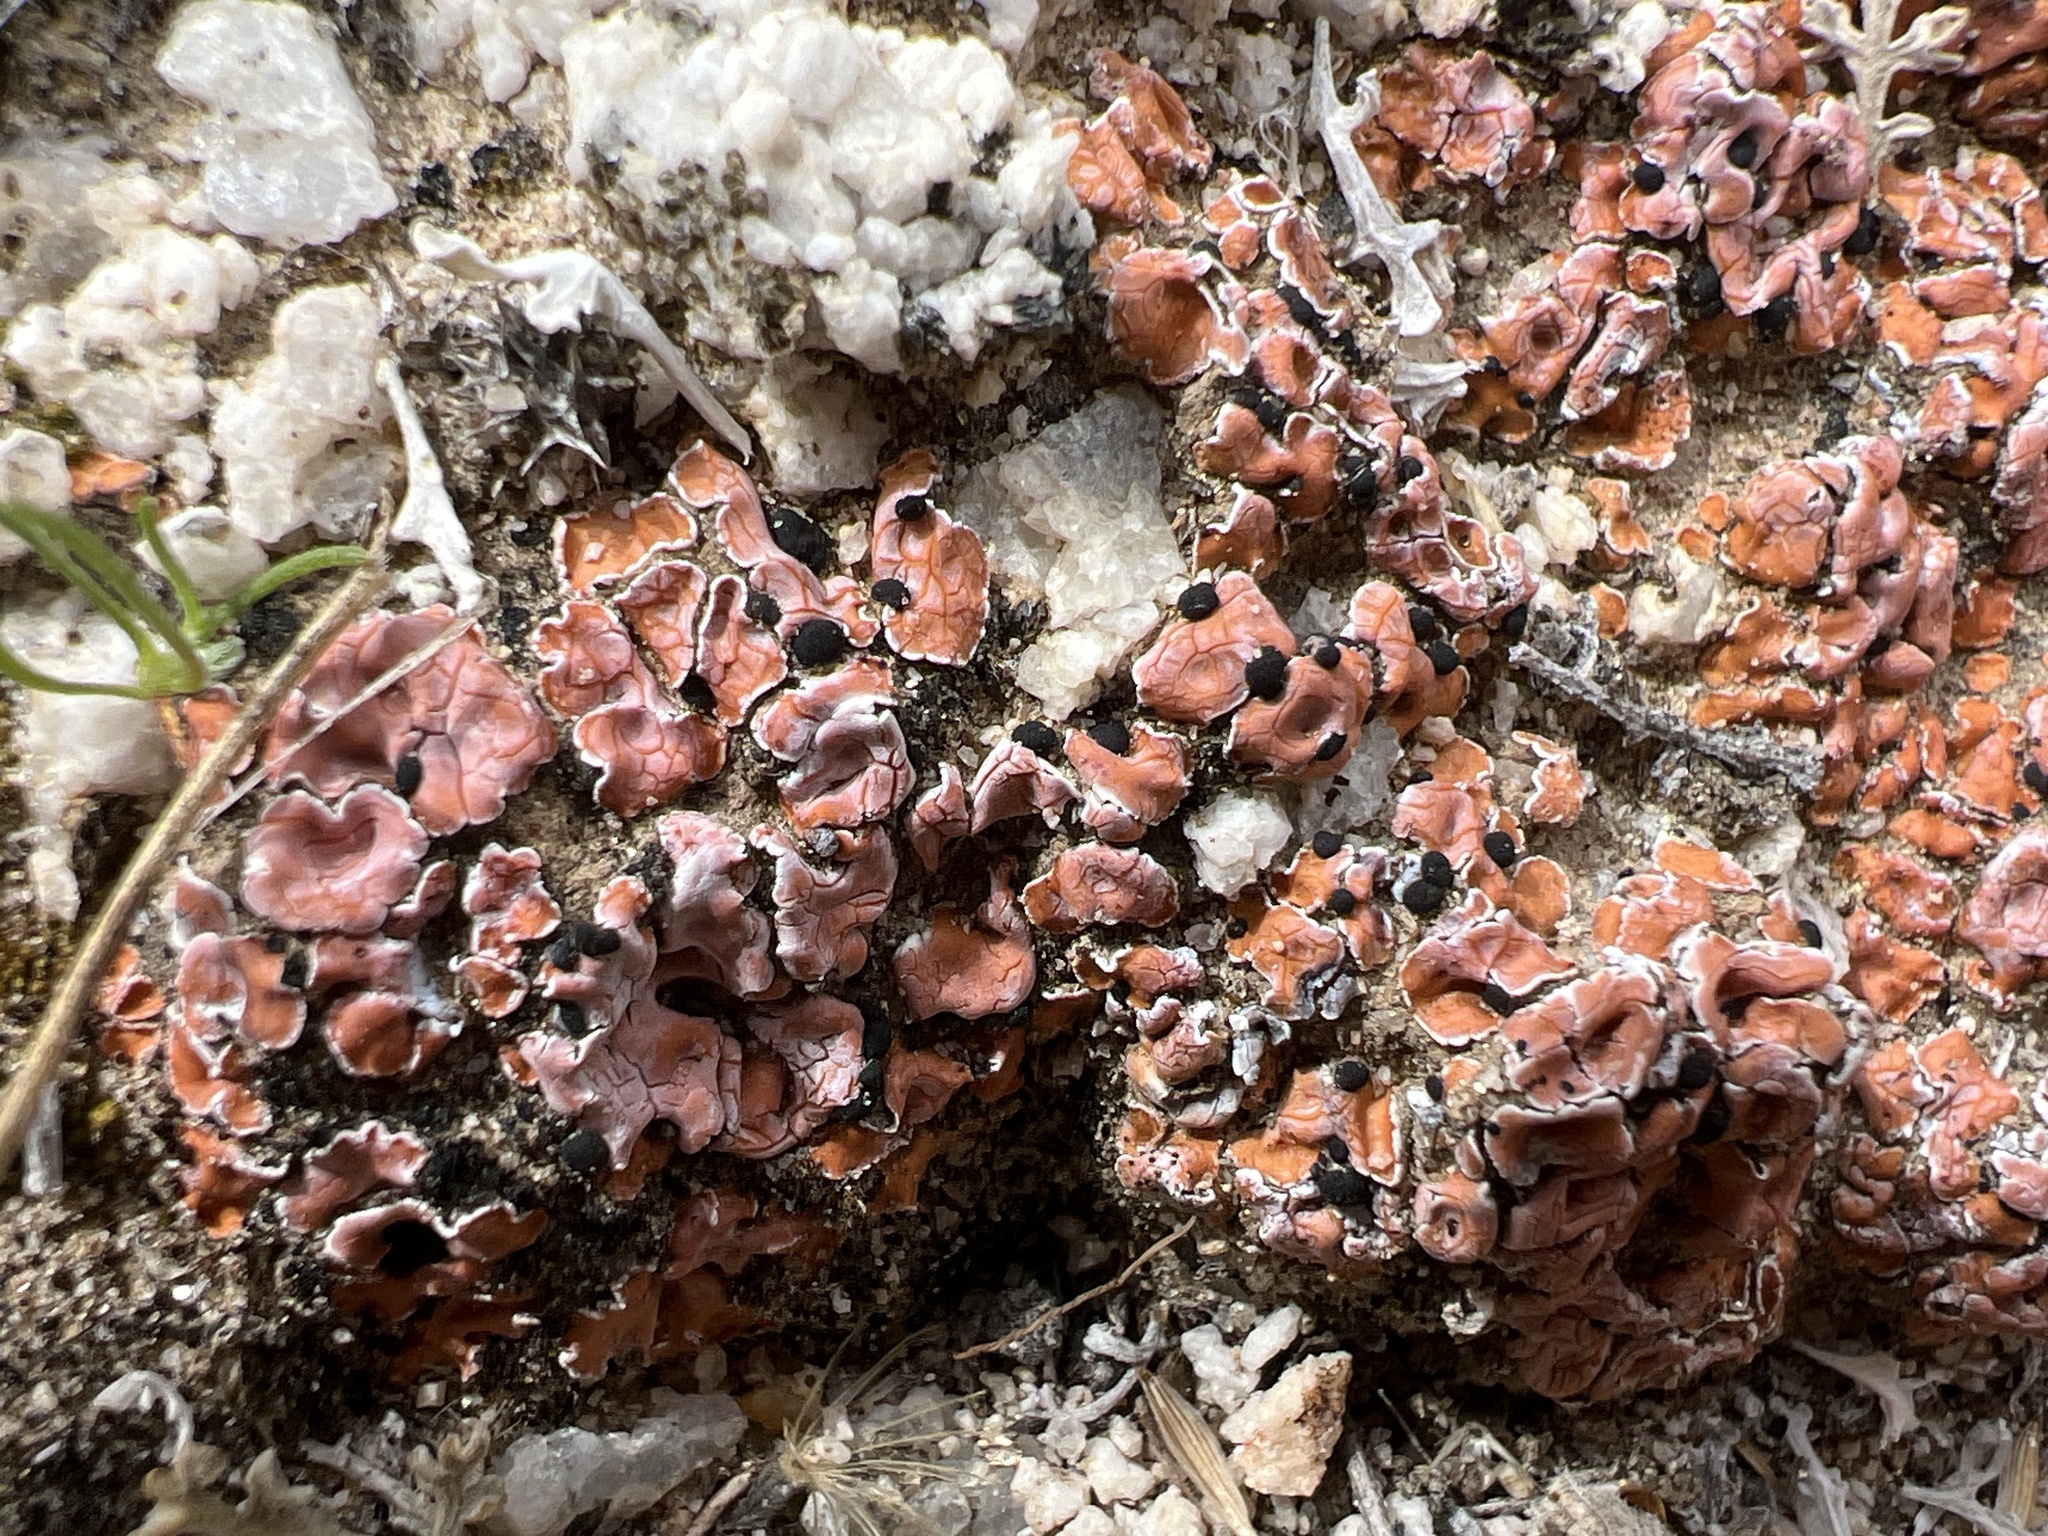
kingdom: Fungi
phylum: Ascomycota
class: Lecanoromycetes
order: Lecanorales
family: Psoraceae
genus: Psora
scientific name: Psora decipiens
